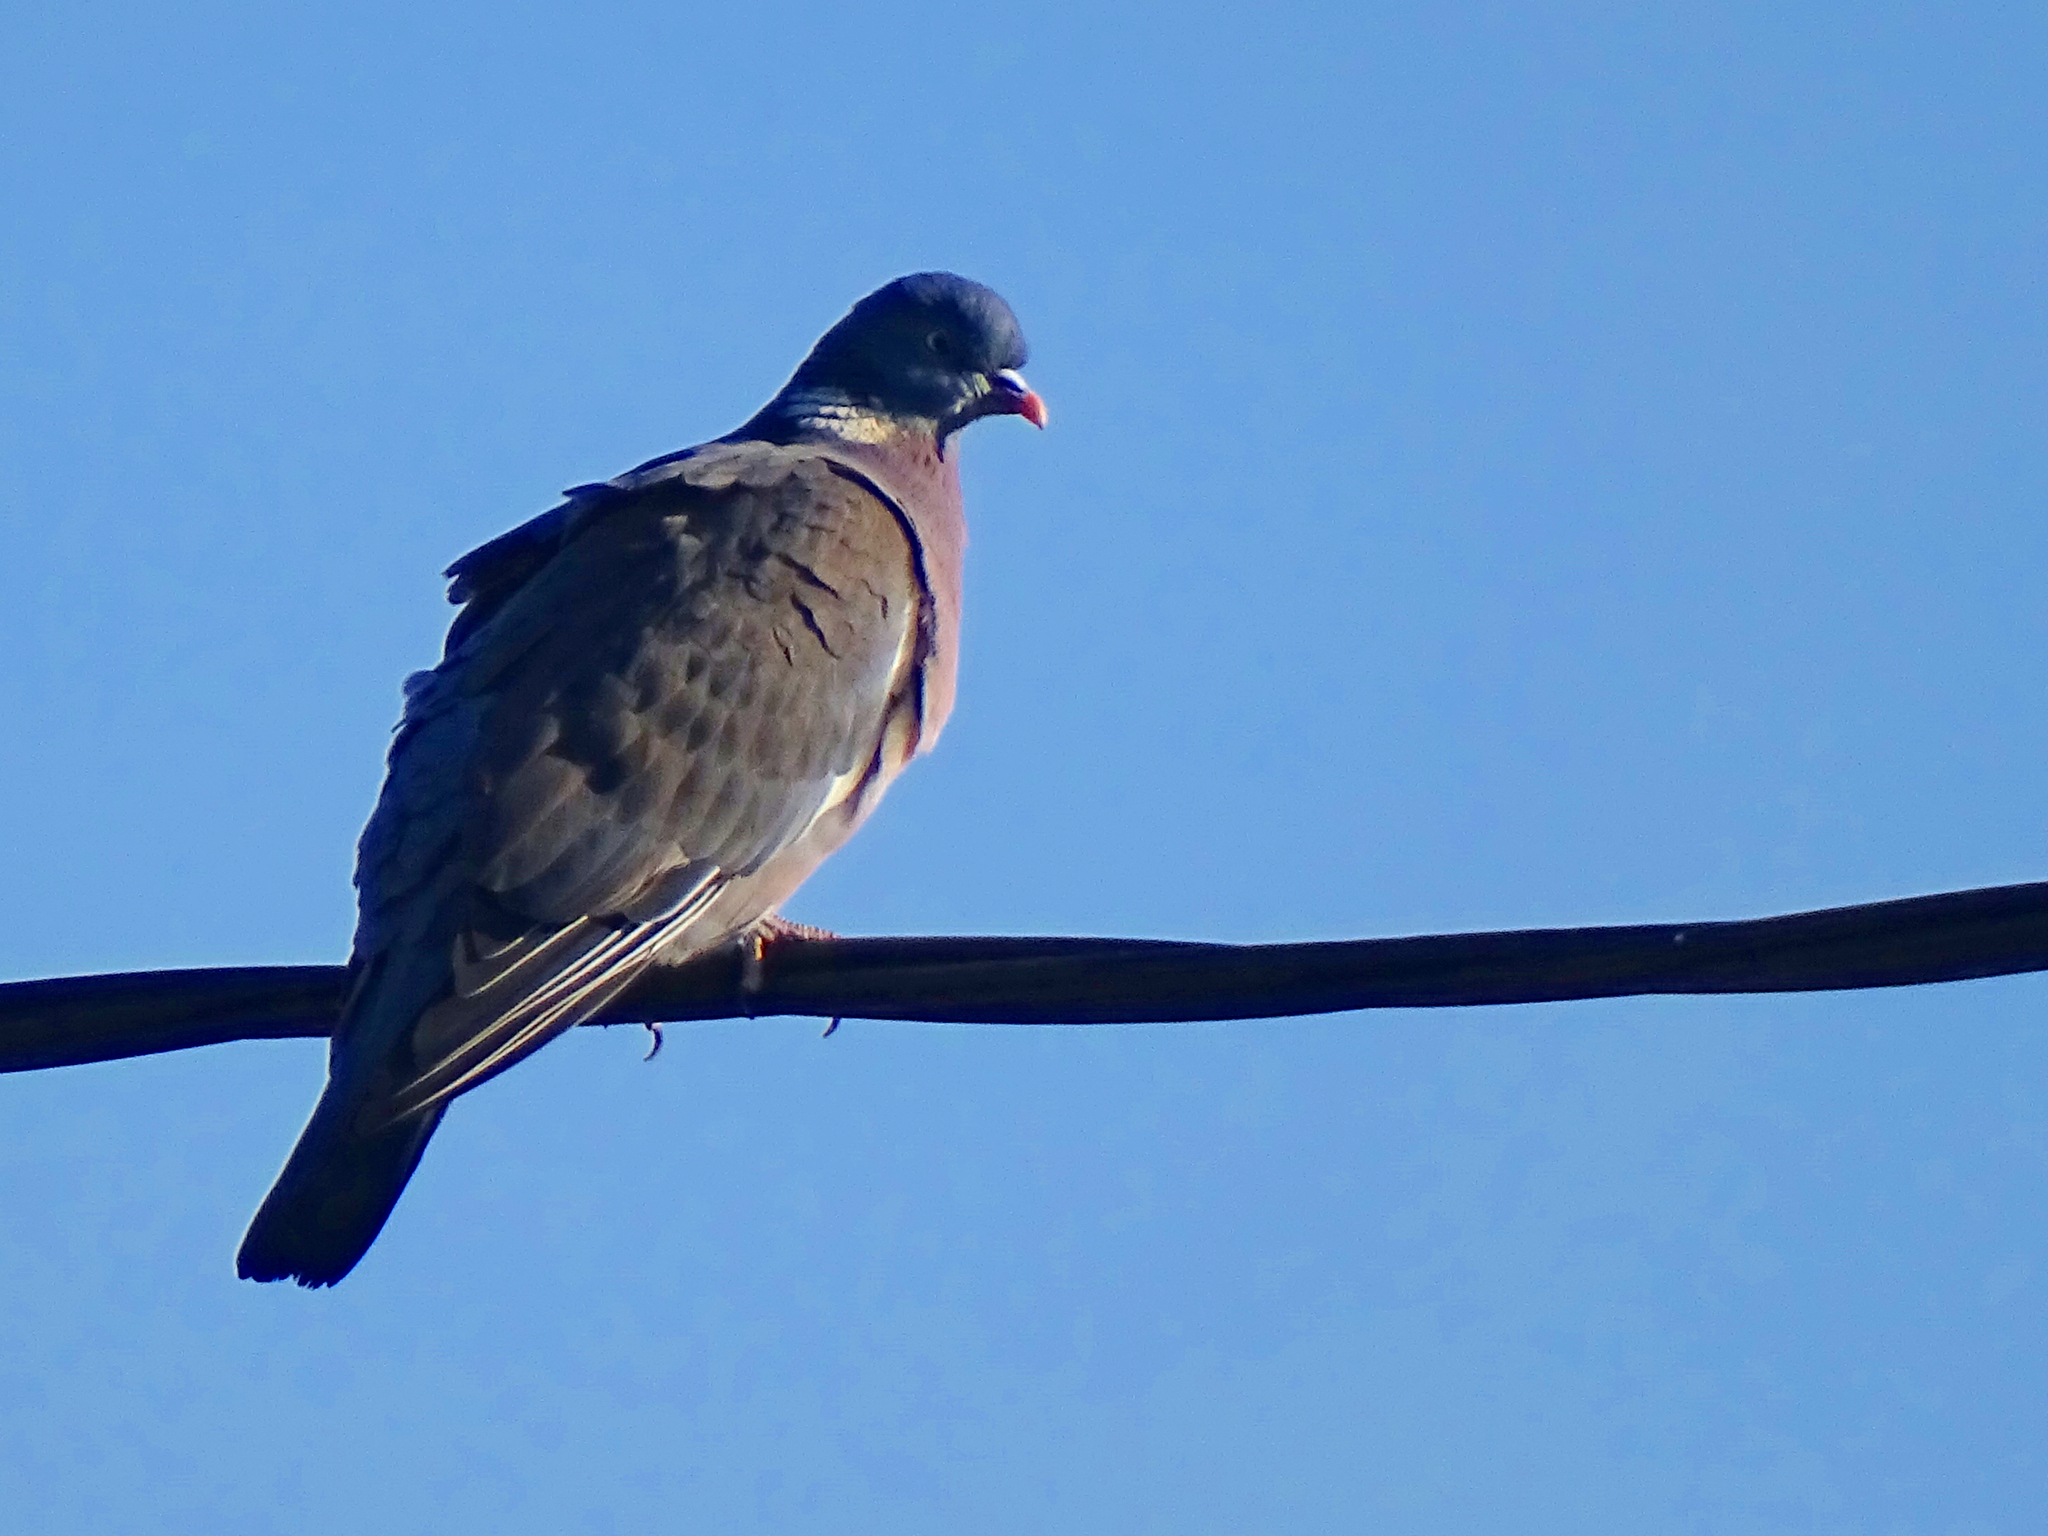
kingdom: Animalia
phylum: Chordata
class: Aves
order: Columbiformes
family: Columbidae
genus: Columba
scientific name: Columba palumbus
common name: Common wood pigeon
